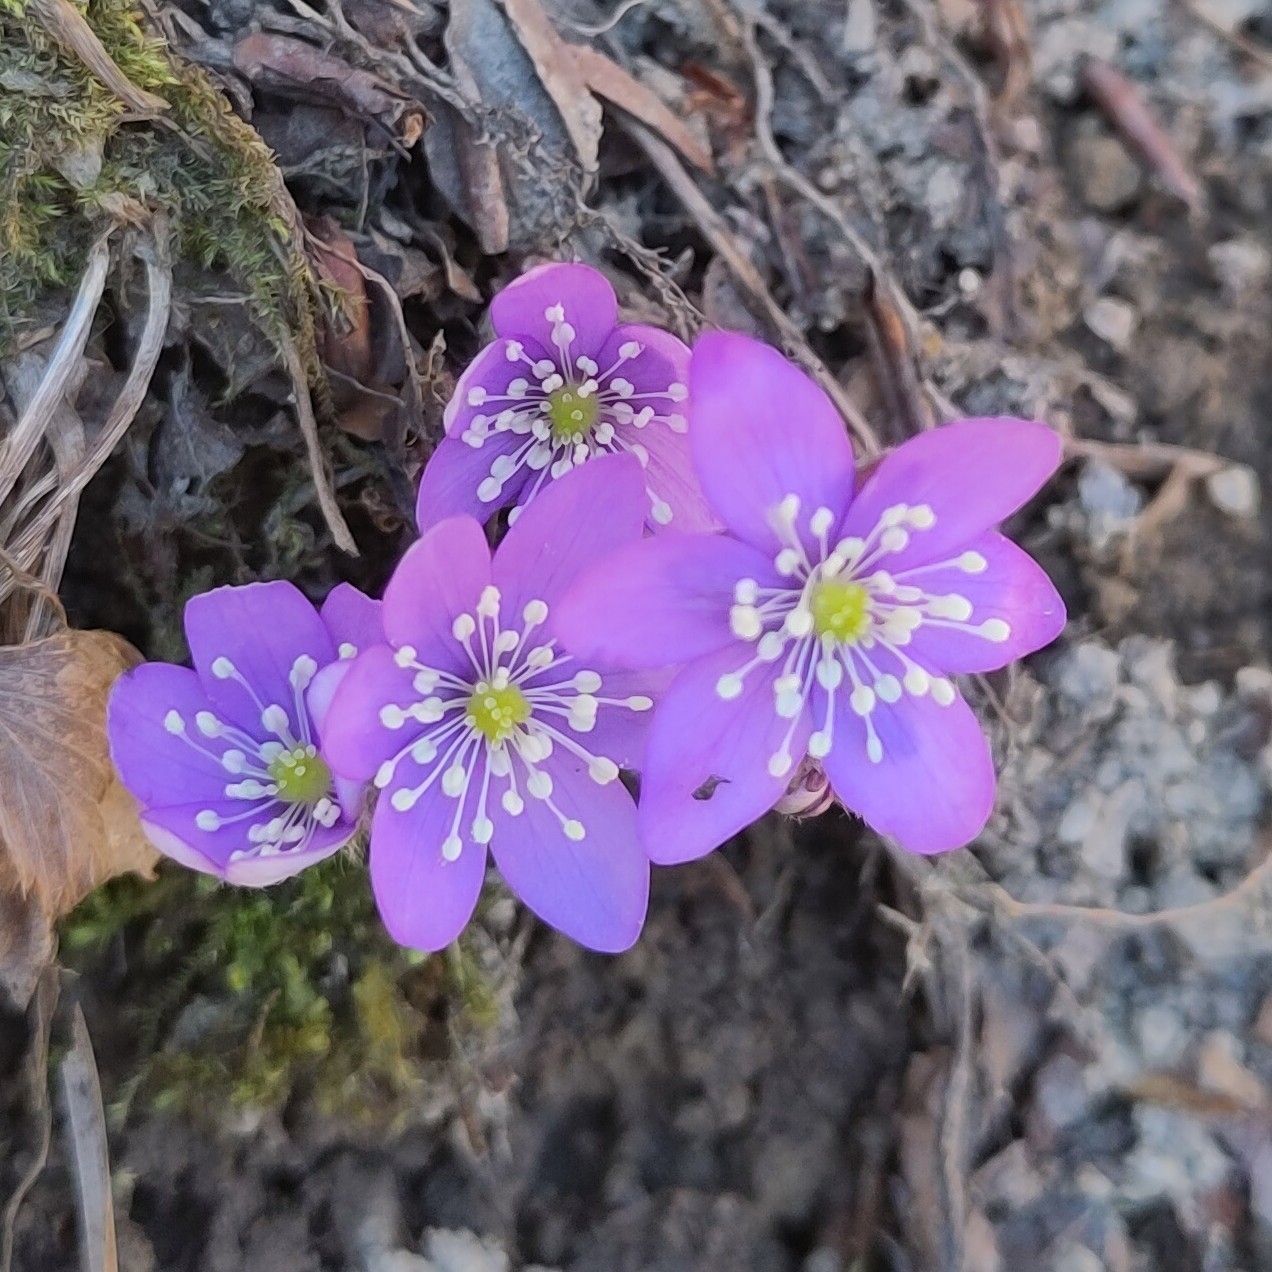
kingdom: Plantae
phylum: Tracheophyta
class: Magnoliopsida
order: Ranunculales
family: Ranunculaceae
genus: Hepatica
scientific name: Hepatica nobilis
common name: Liverleaf
